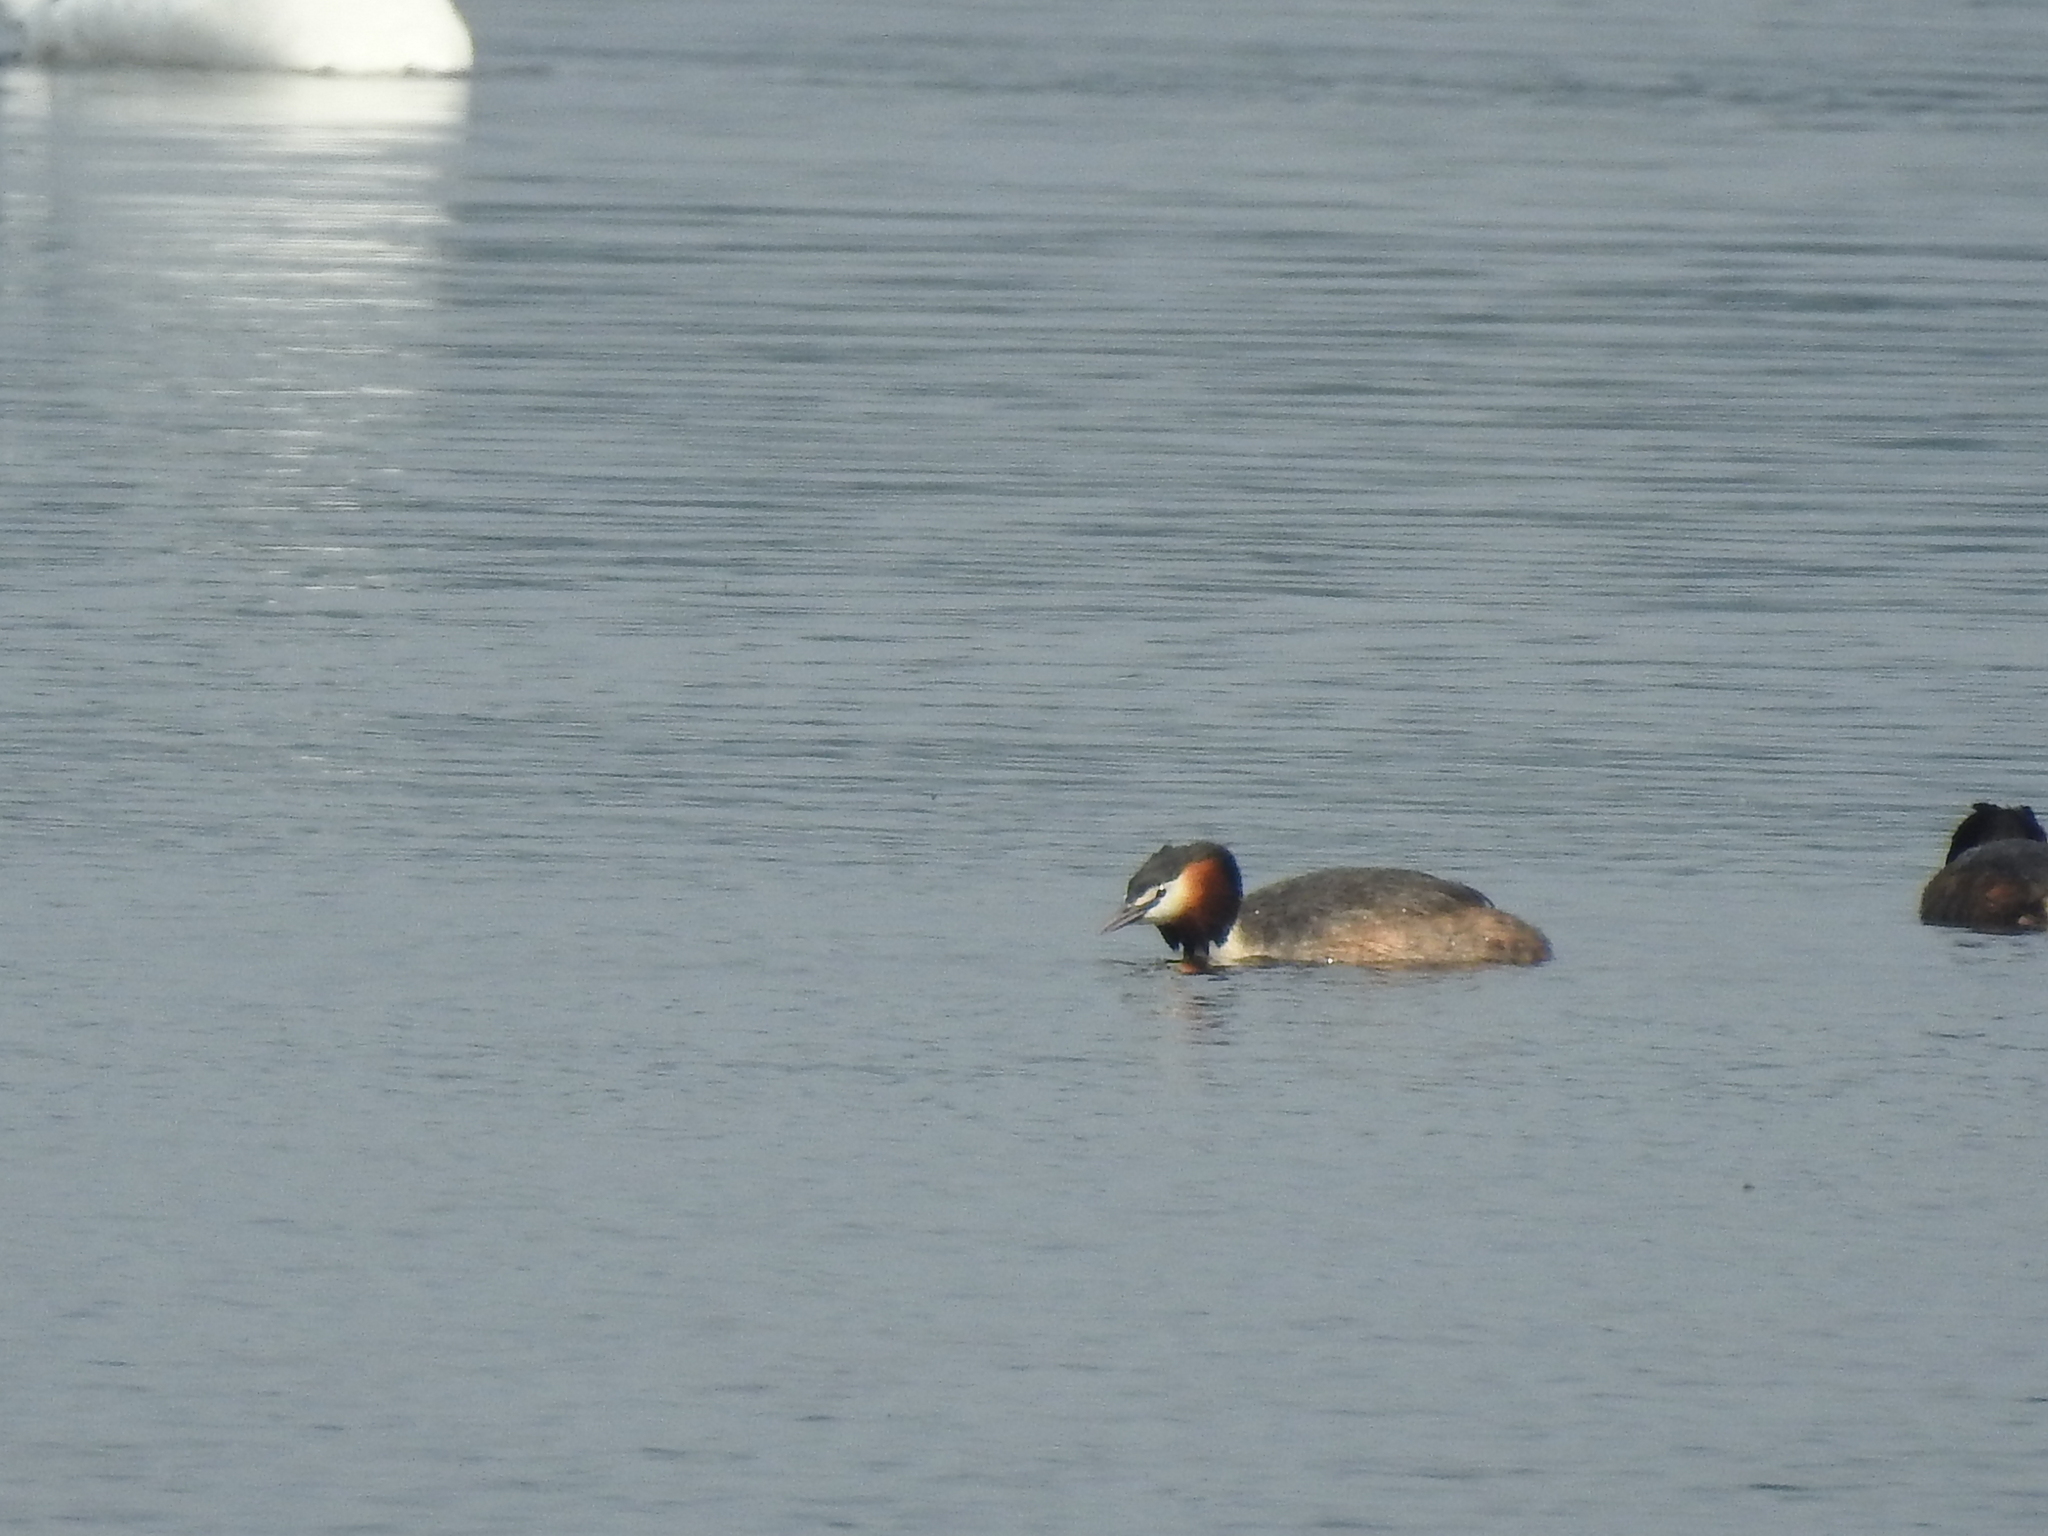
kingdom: Animalia
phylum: Chordata
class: Aves
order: Podicipediformes
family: Podicipedidae
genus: Podiceps
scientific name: Podiceps cristatus
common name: Great crested grebe
